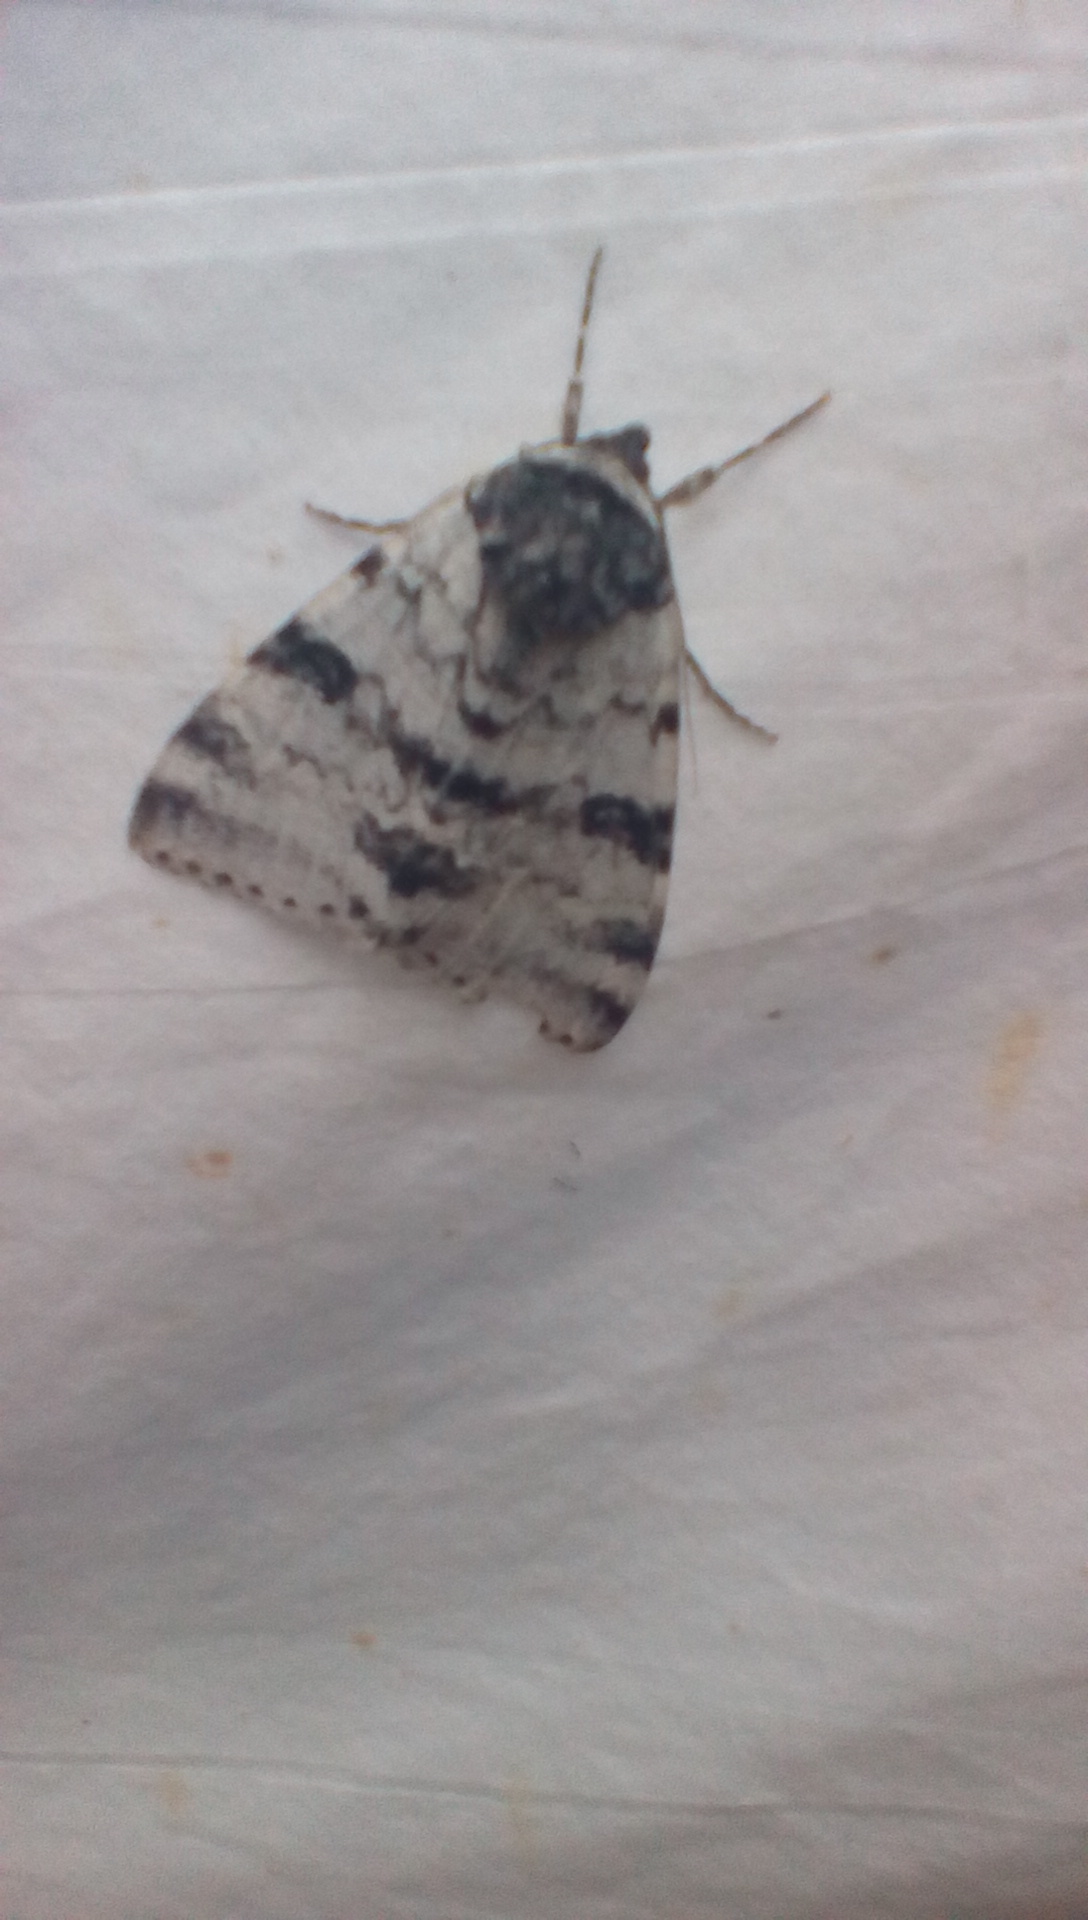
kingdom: Animalia
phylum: Arthropoda
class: Insecta
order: Lepidoptera
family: Erebidae
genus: Catocala
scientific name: Catocala relicta
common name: White underwing
